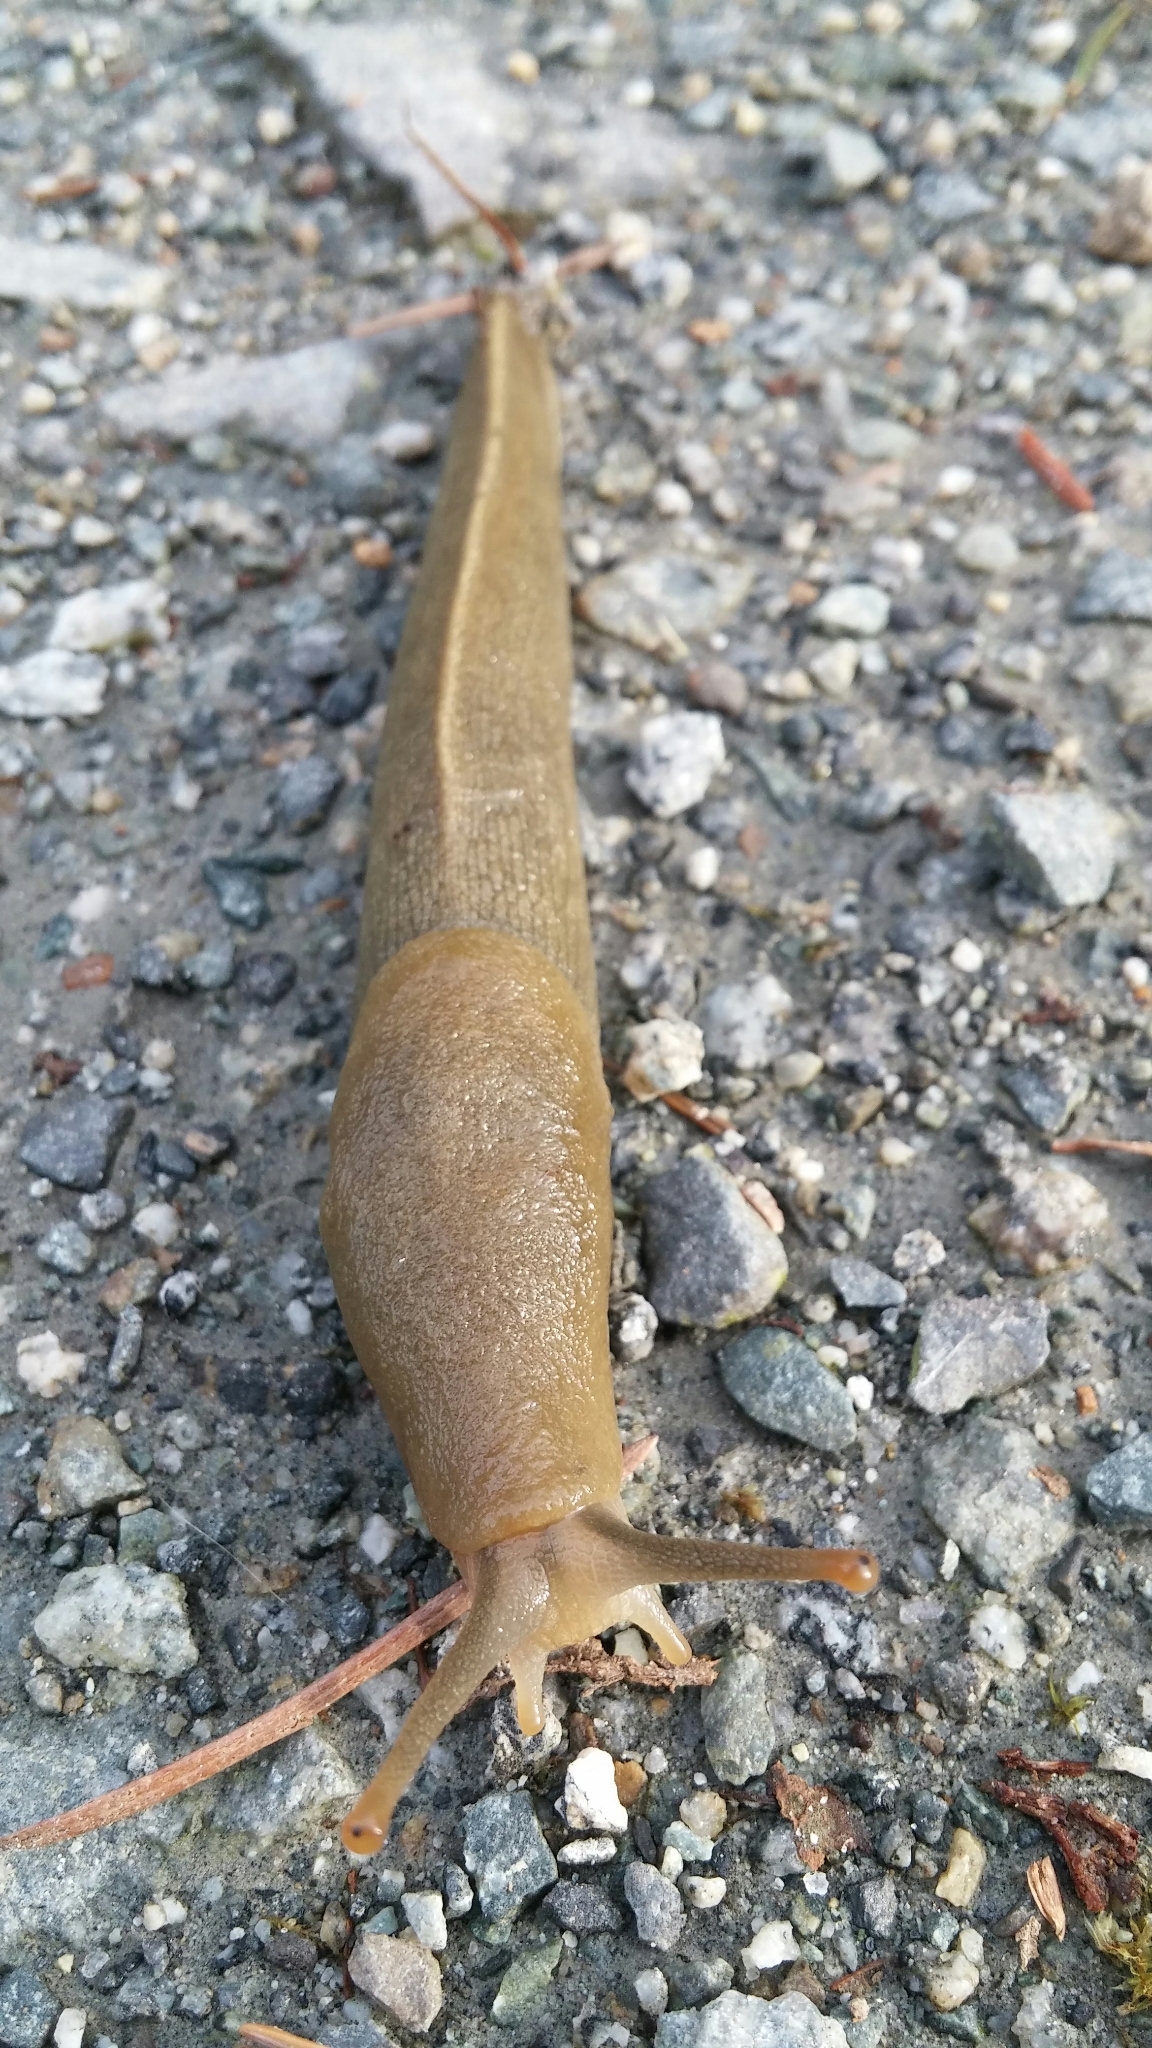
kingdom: Animalia
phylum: Mollusca
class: Gastropoda
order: Stylommatophora
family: Ariolimacidae
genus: Ariolimax
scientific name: Ariolimax columbianus
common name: Pacific banana slug
